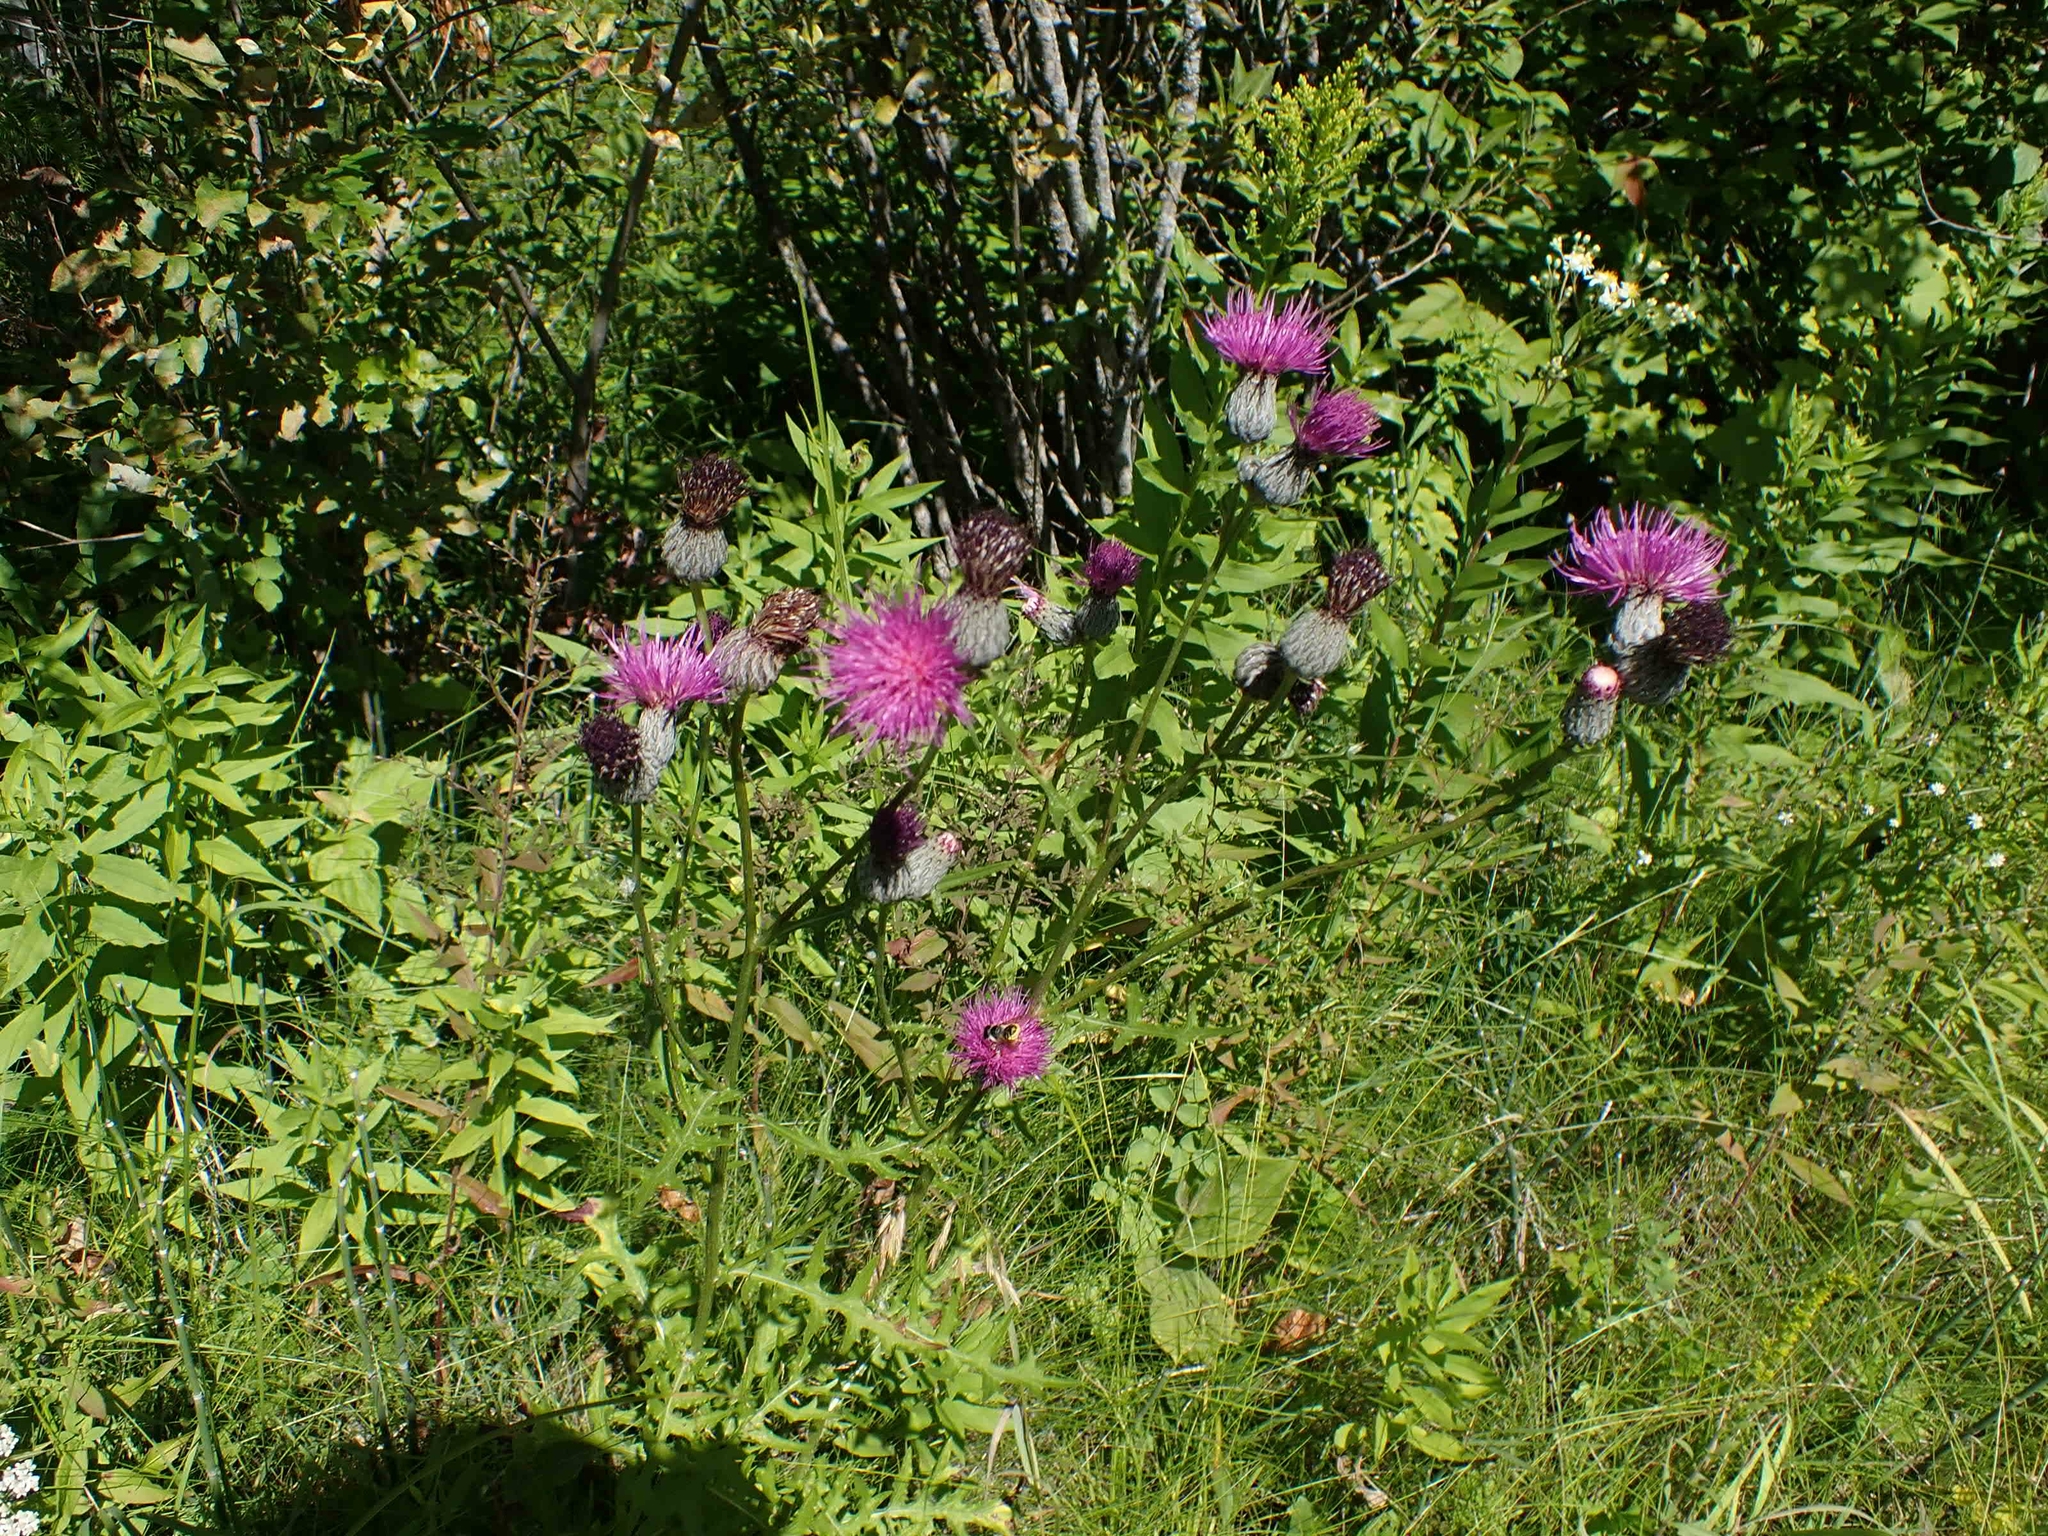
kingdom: Plantae
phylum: Tracheophyta
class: Magnoliopsida
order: Asterales
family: Asteraceae
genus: Cirsium
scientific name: Cirsium muticum
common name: Dunce-nettle
